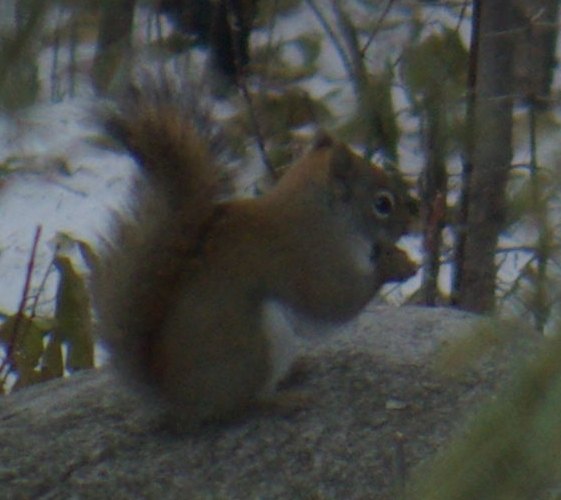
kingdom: Animalia
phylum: Chordata
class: Mammalia
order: Rodentia
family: Sciuridae
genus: Tamiasciurus
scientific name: Tamiasciurus hudsonicus
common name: Red squirrel
